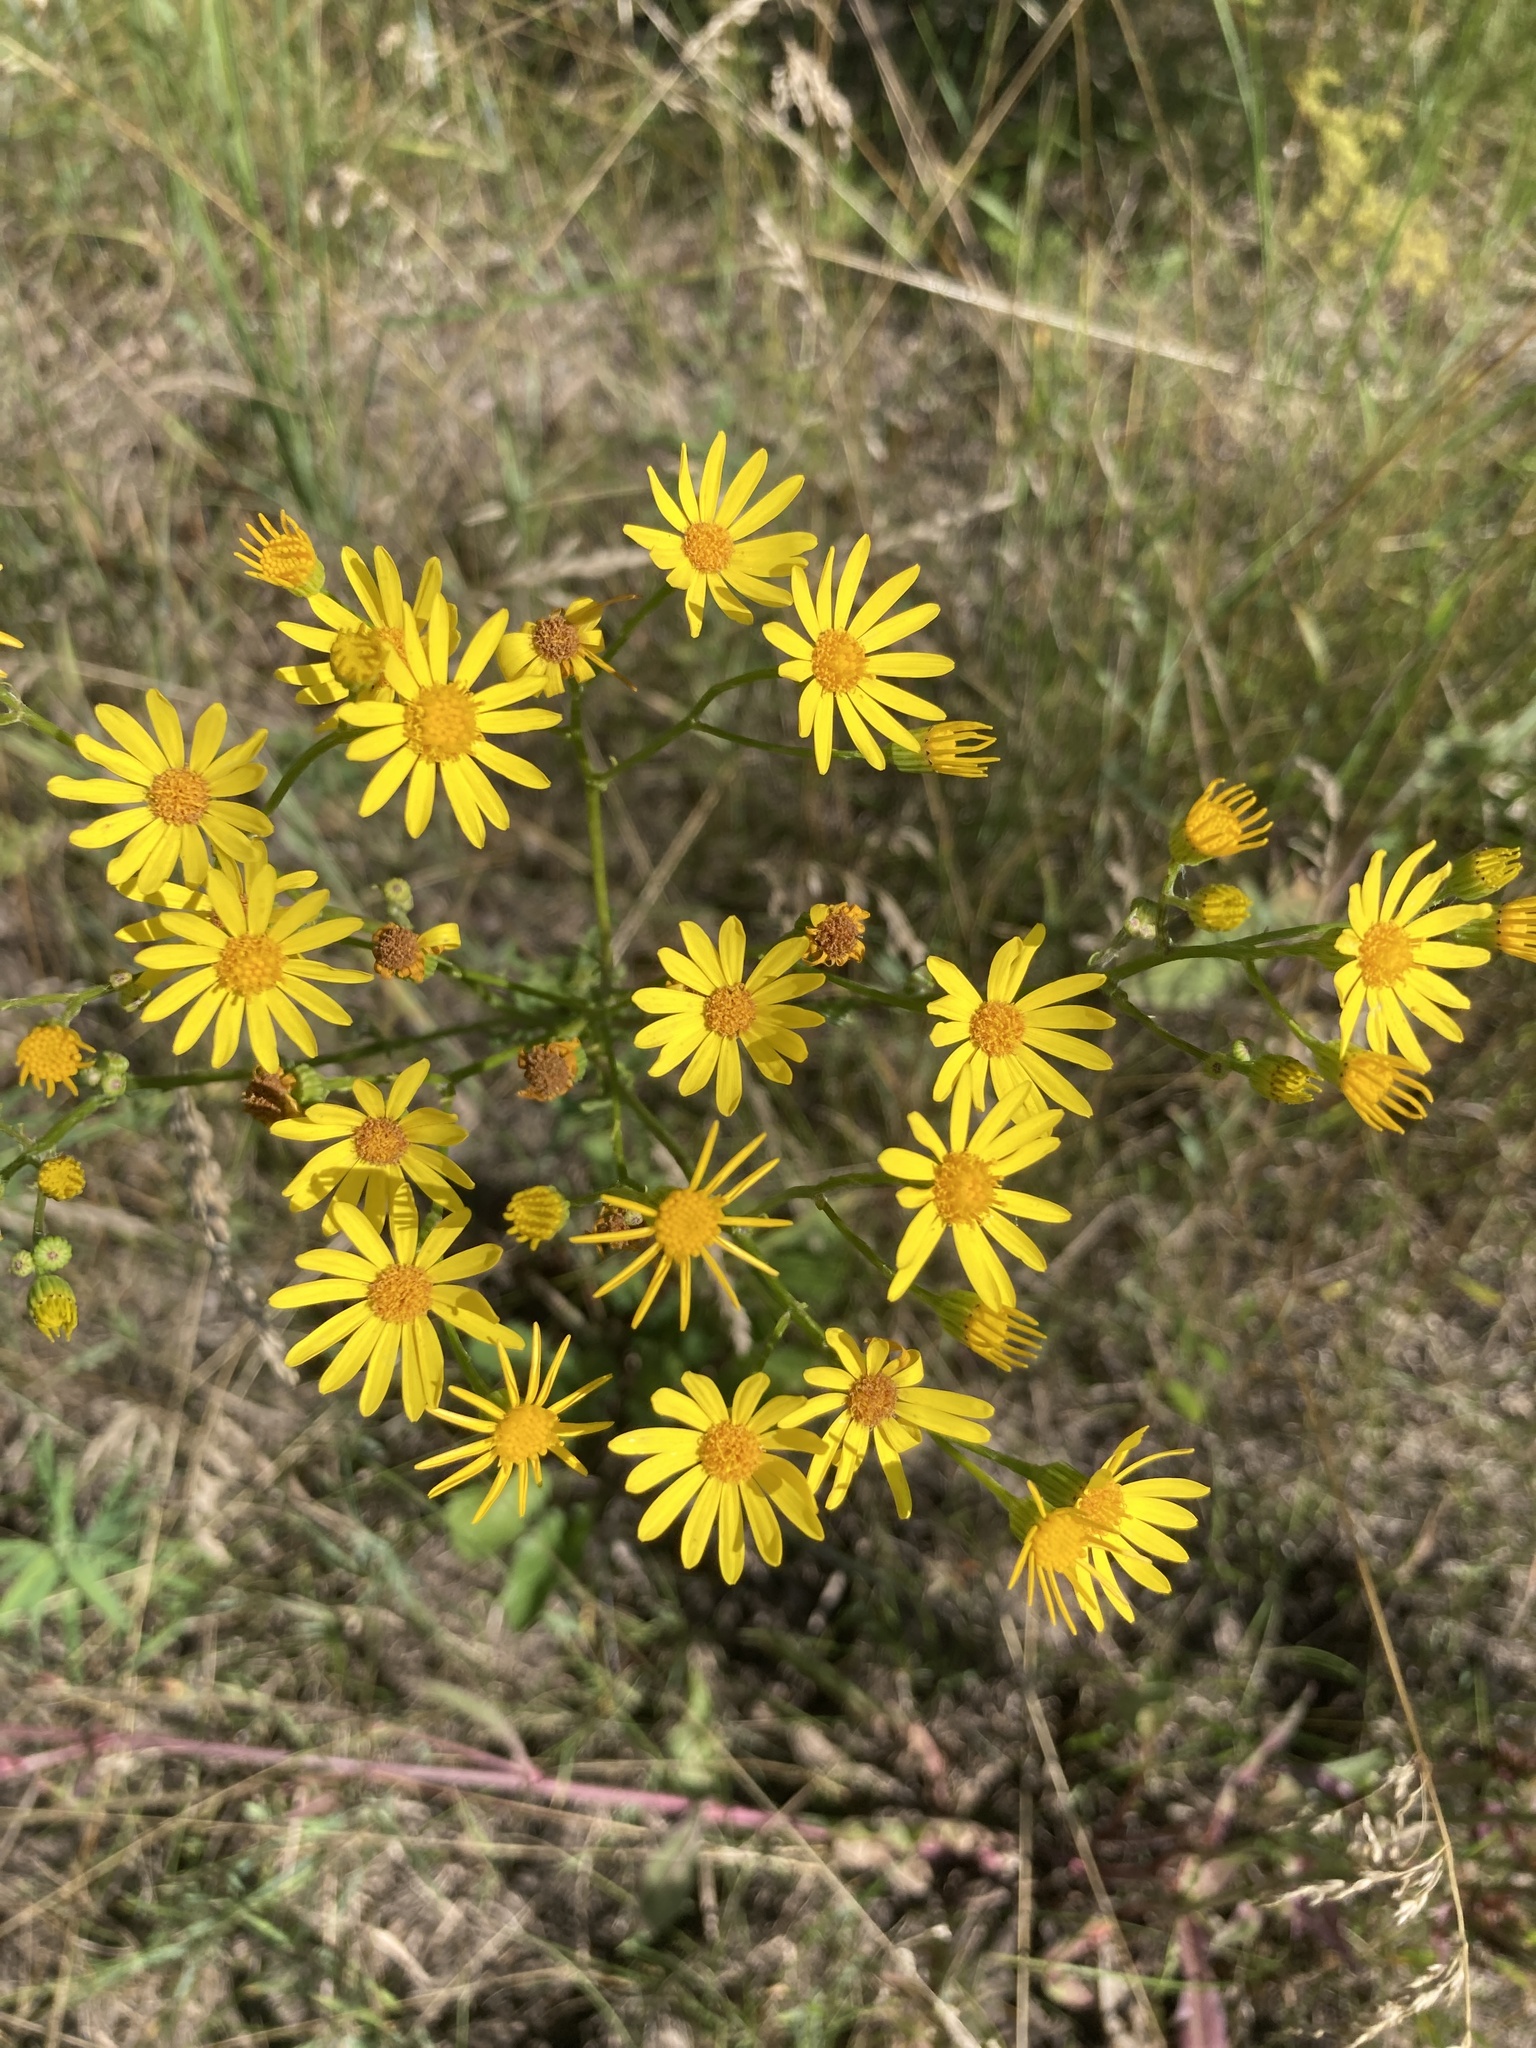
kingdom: Plantae
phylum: Tracheophyta
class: Magnoliopsida
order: Asterales
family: Asteraceae
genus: Jacobaea
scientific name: Jacobaea vulgaris
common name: Stinking willie
